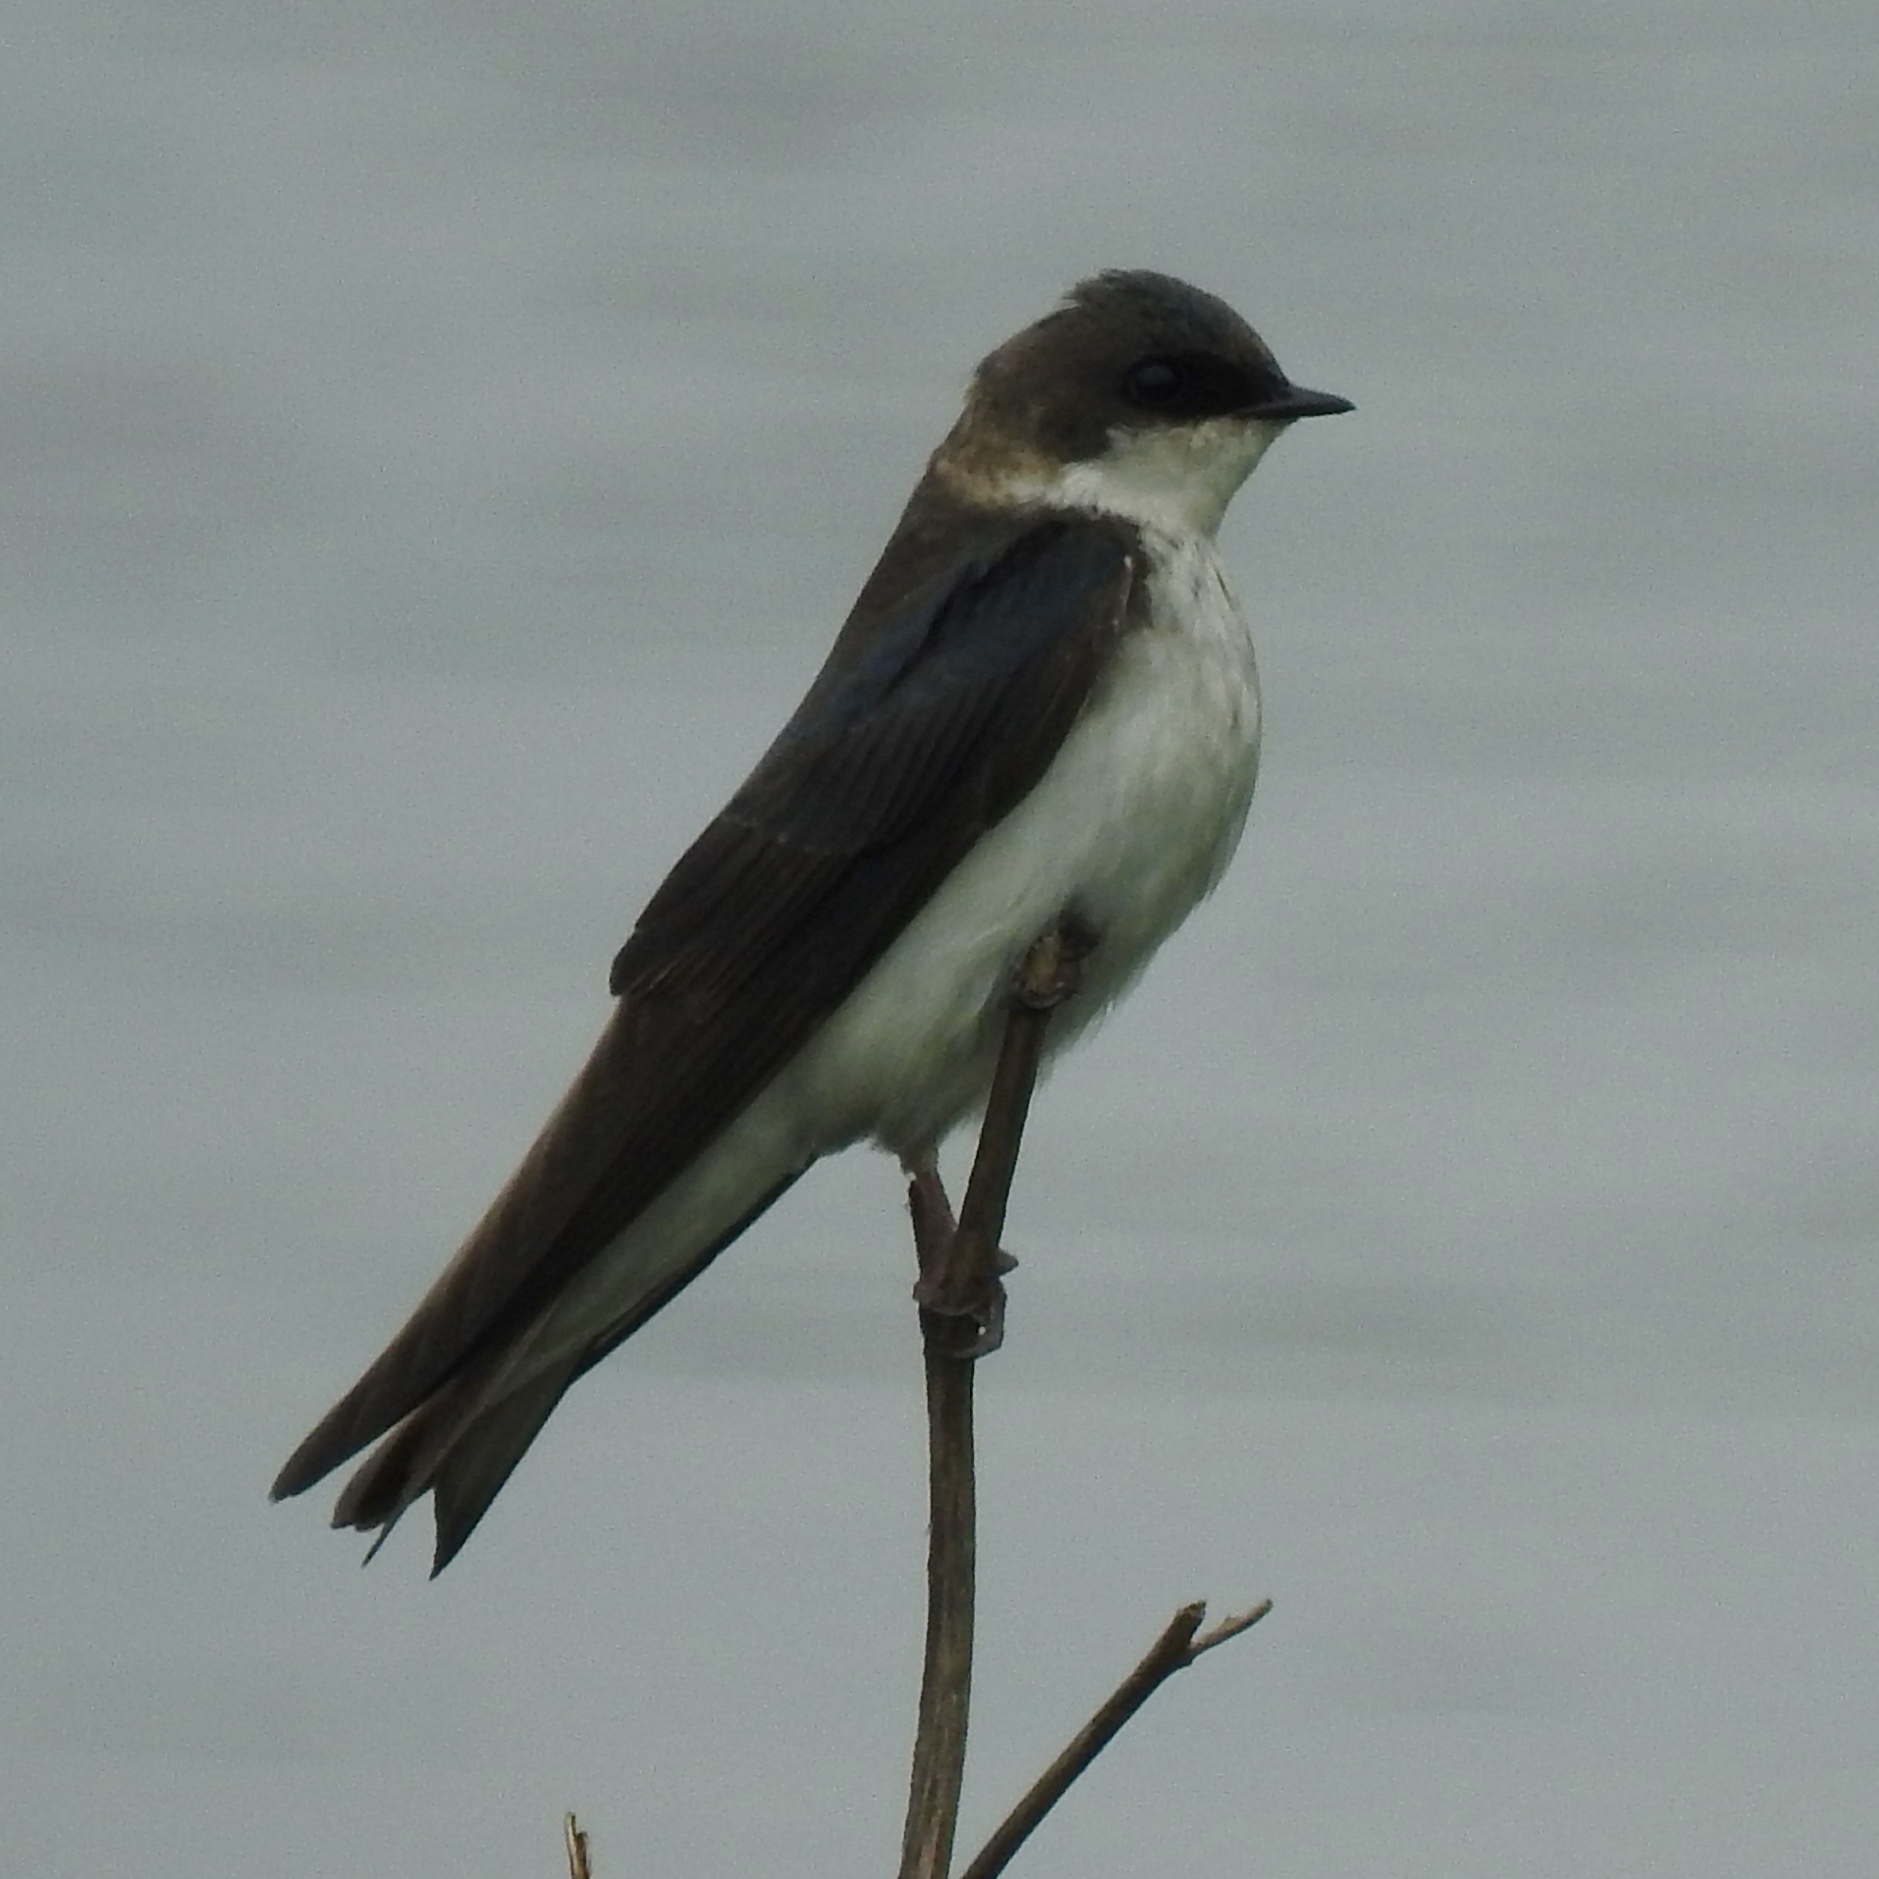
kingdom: Animalia
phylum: Chordata
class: Aves
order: Passeriformes
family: Hirundinidae
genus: Tachycineta
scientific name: Tachycineta bicolor
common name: Tree swallow
